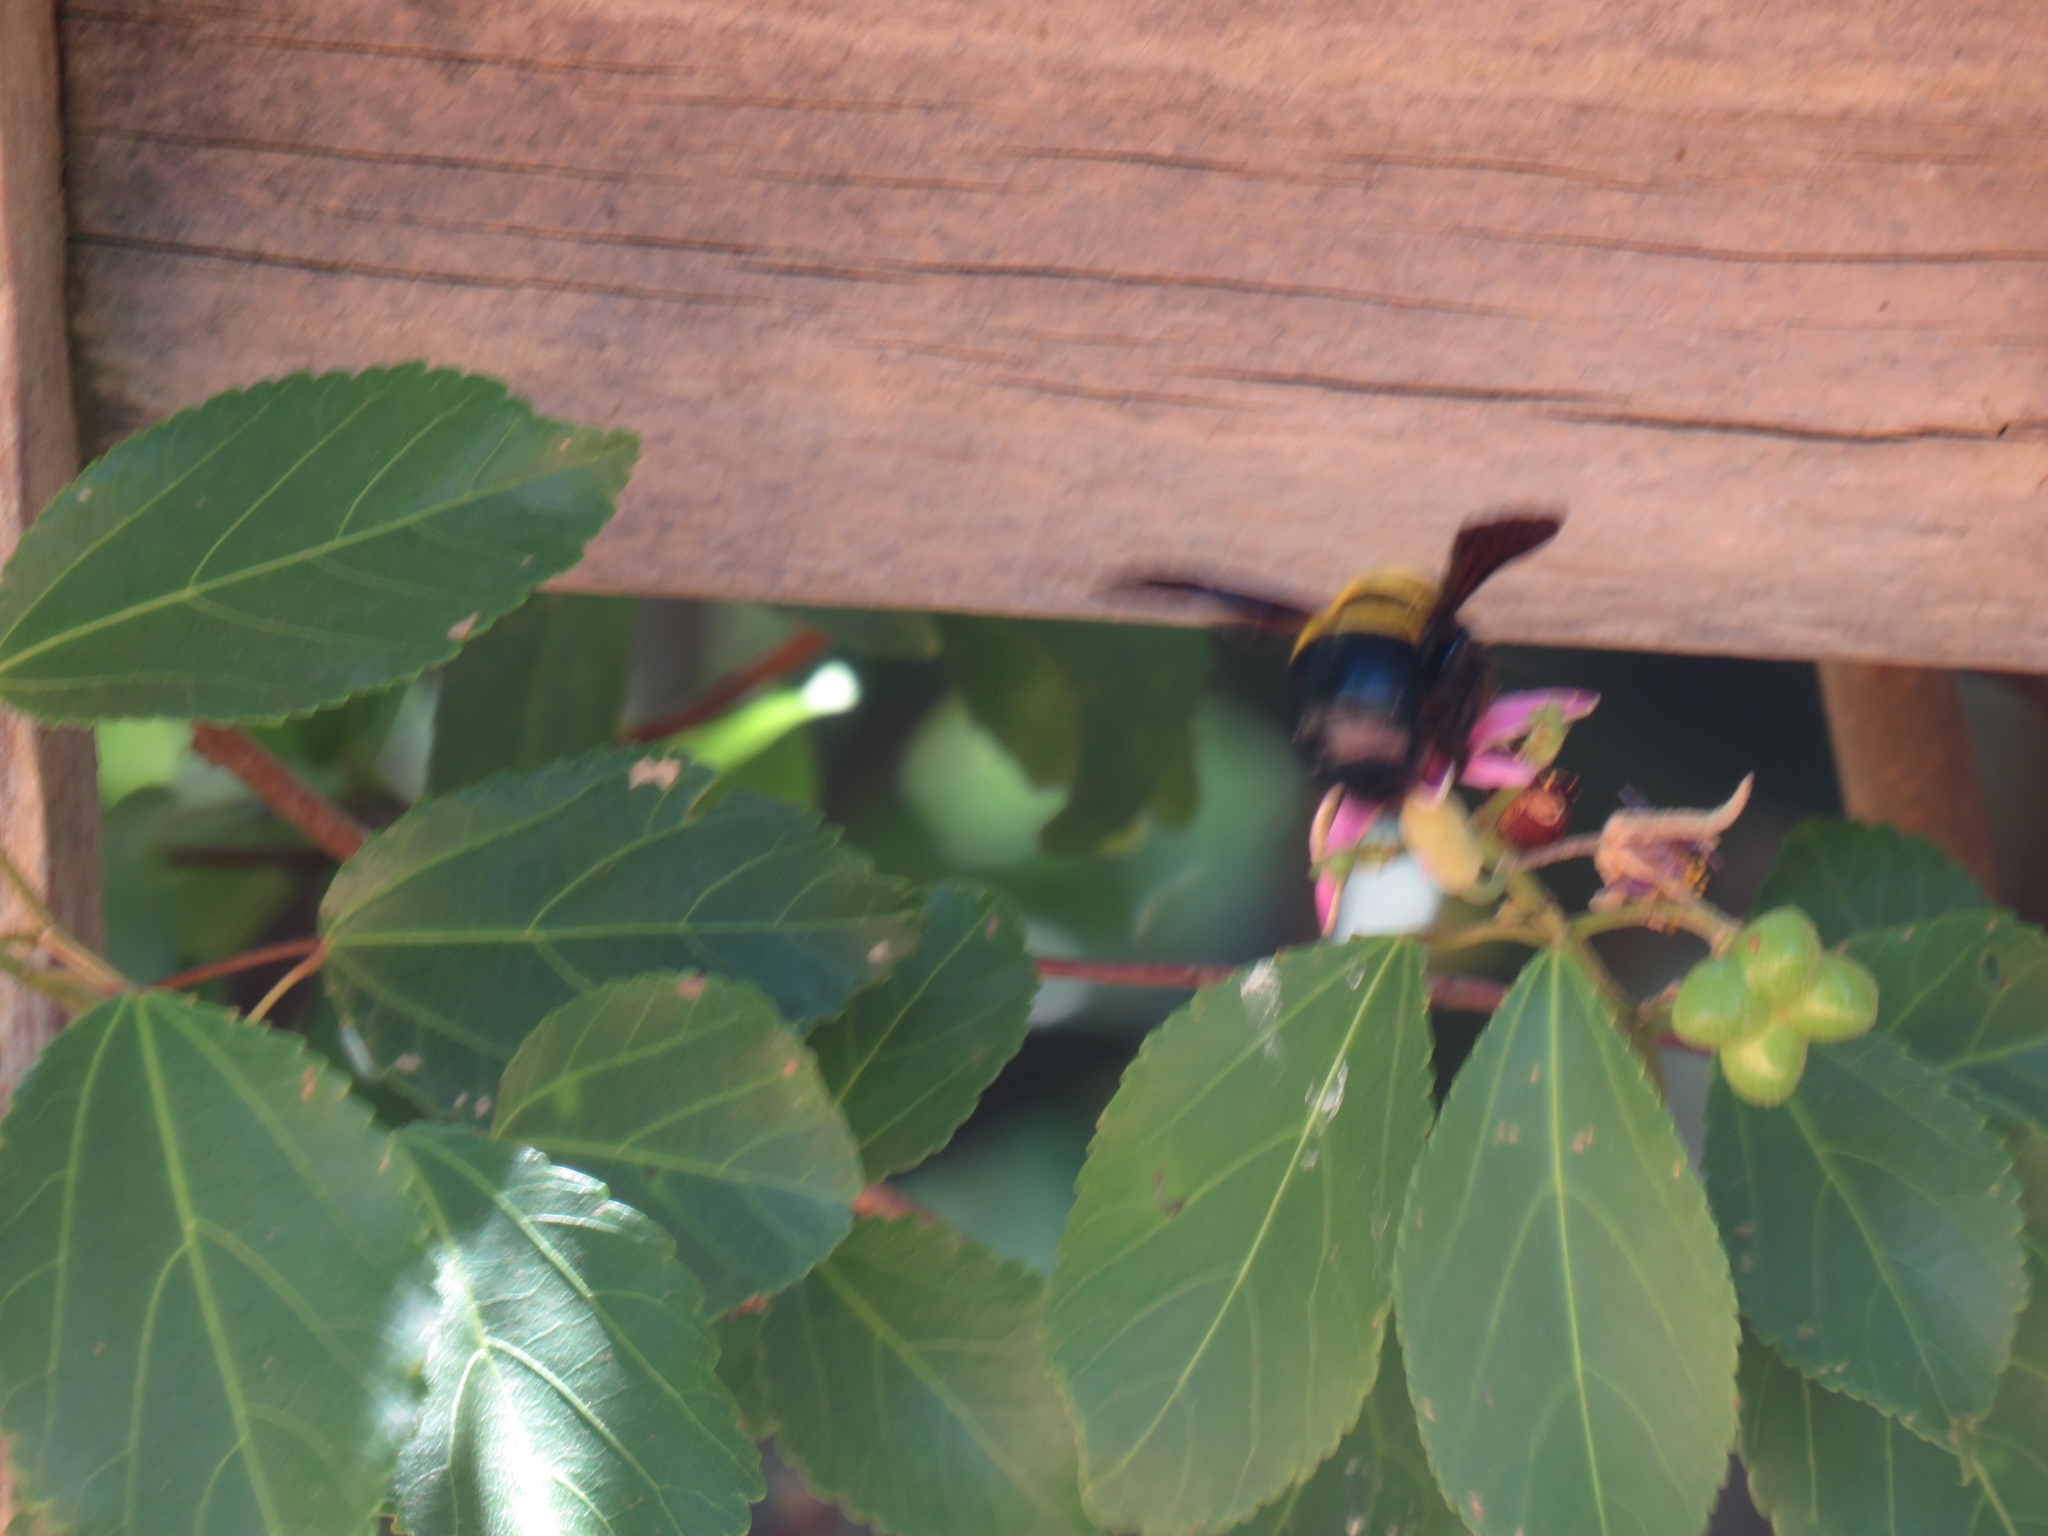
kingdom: Animalia
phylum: Arthropoda
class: Insecta
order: Hymenoptera
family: Apidae
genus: Xylocopa
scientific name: Xylocopa caffra
